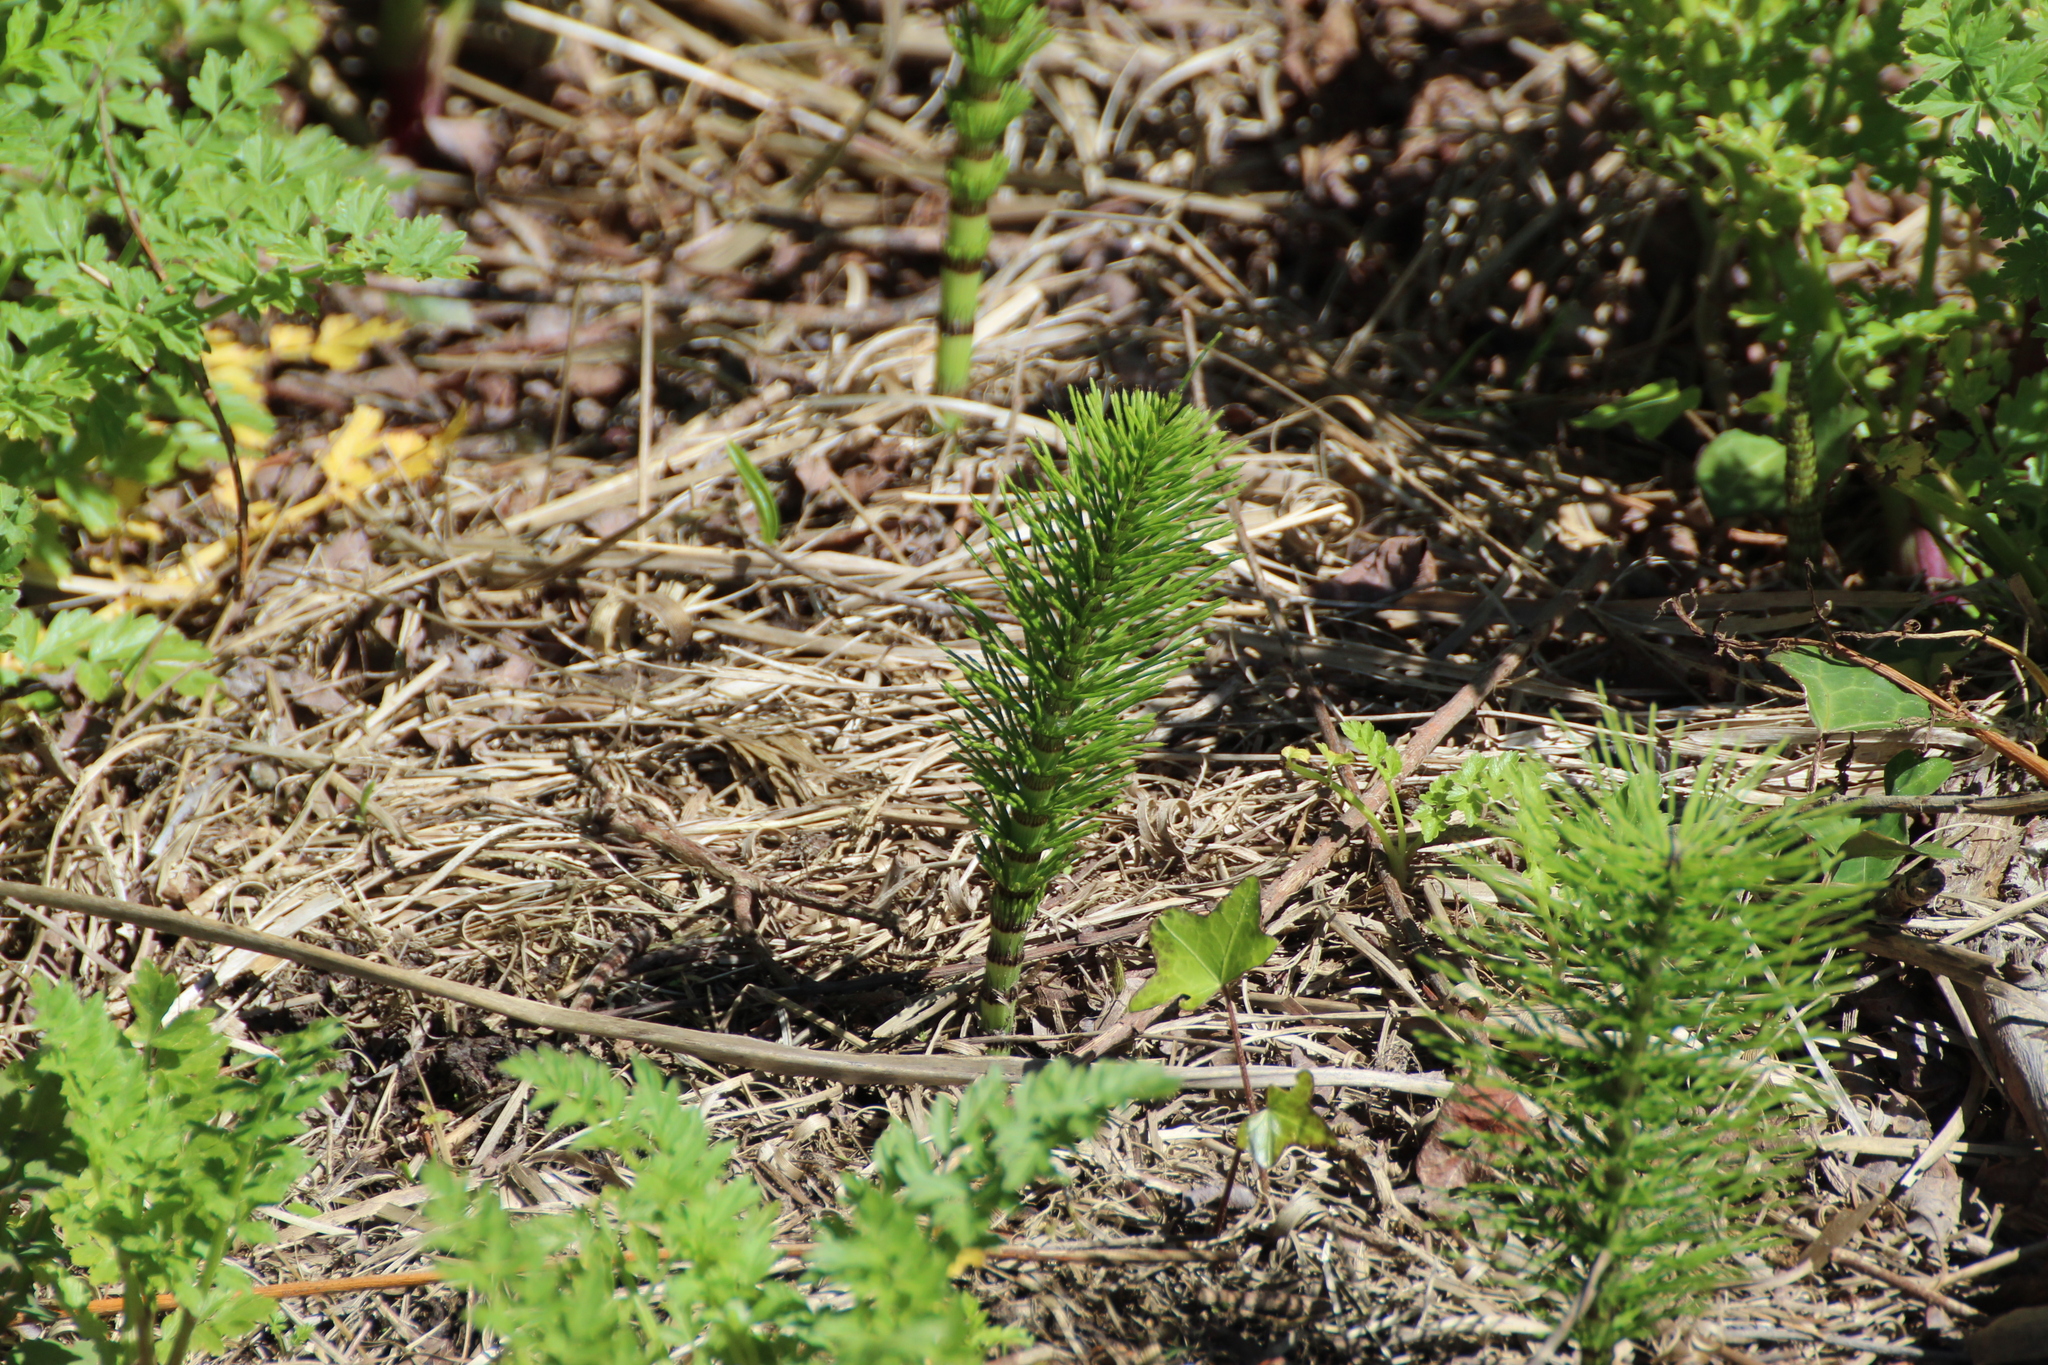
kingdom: Plantae
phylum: Tracheophyta
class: Polypodiopsida
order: Equisetales
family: Equisetaceae
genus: Equisetum
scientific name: Equisetum telmateia
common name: Great horsetail
